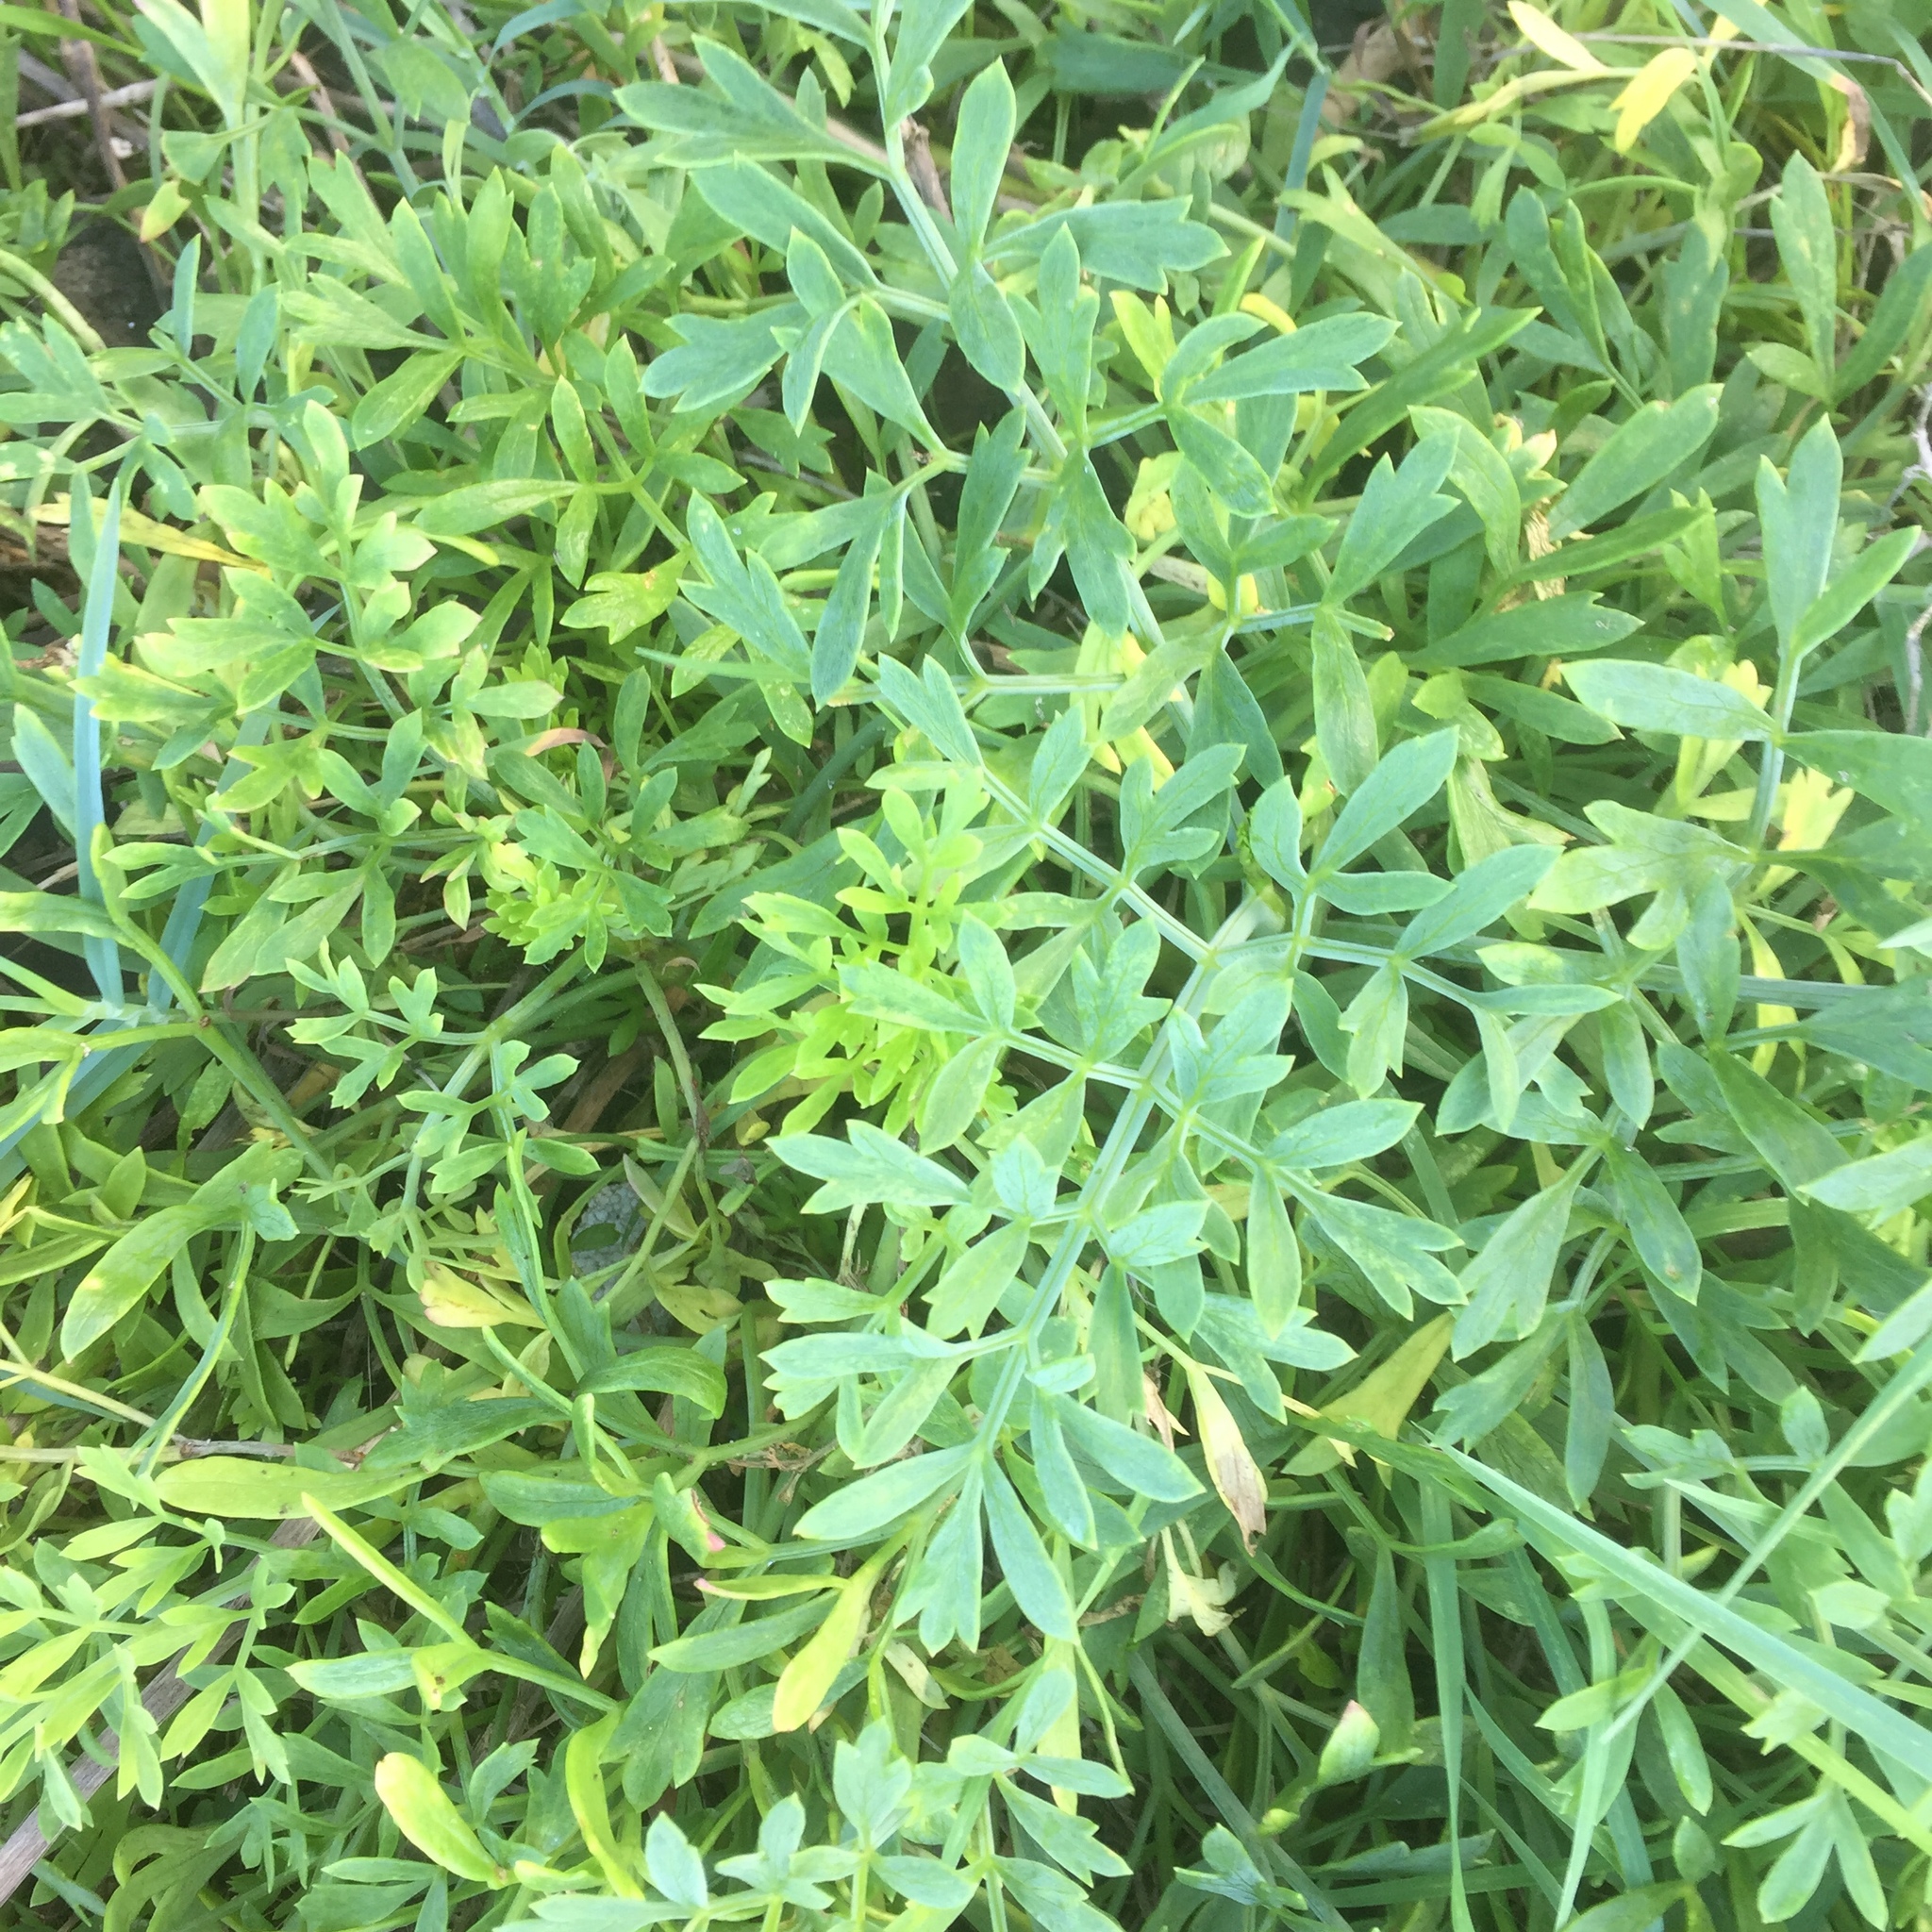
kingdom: Plantae
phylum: Tracheophyta
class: Magnoliopsida
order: Apiales
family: Apiaceae
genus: Crithmum
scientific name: Crithmum maritimum
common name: Rock samphire
